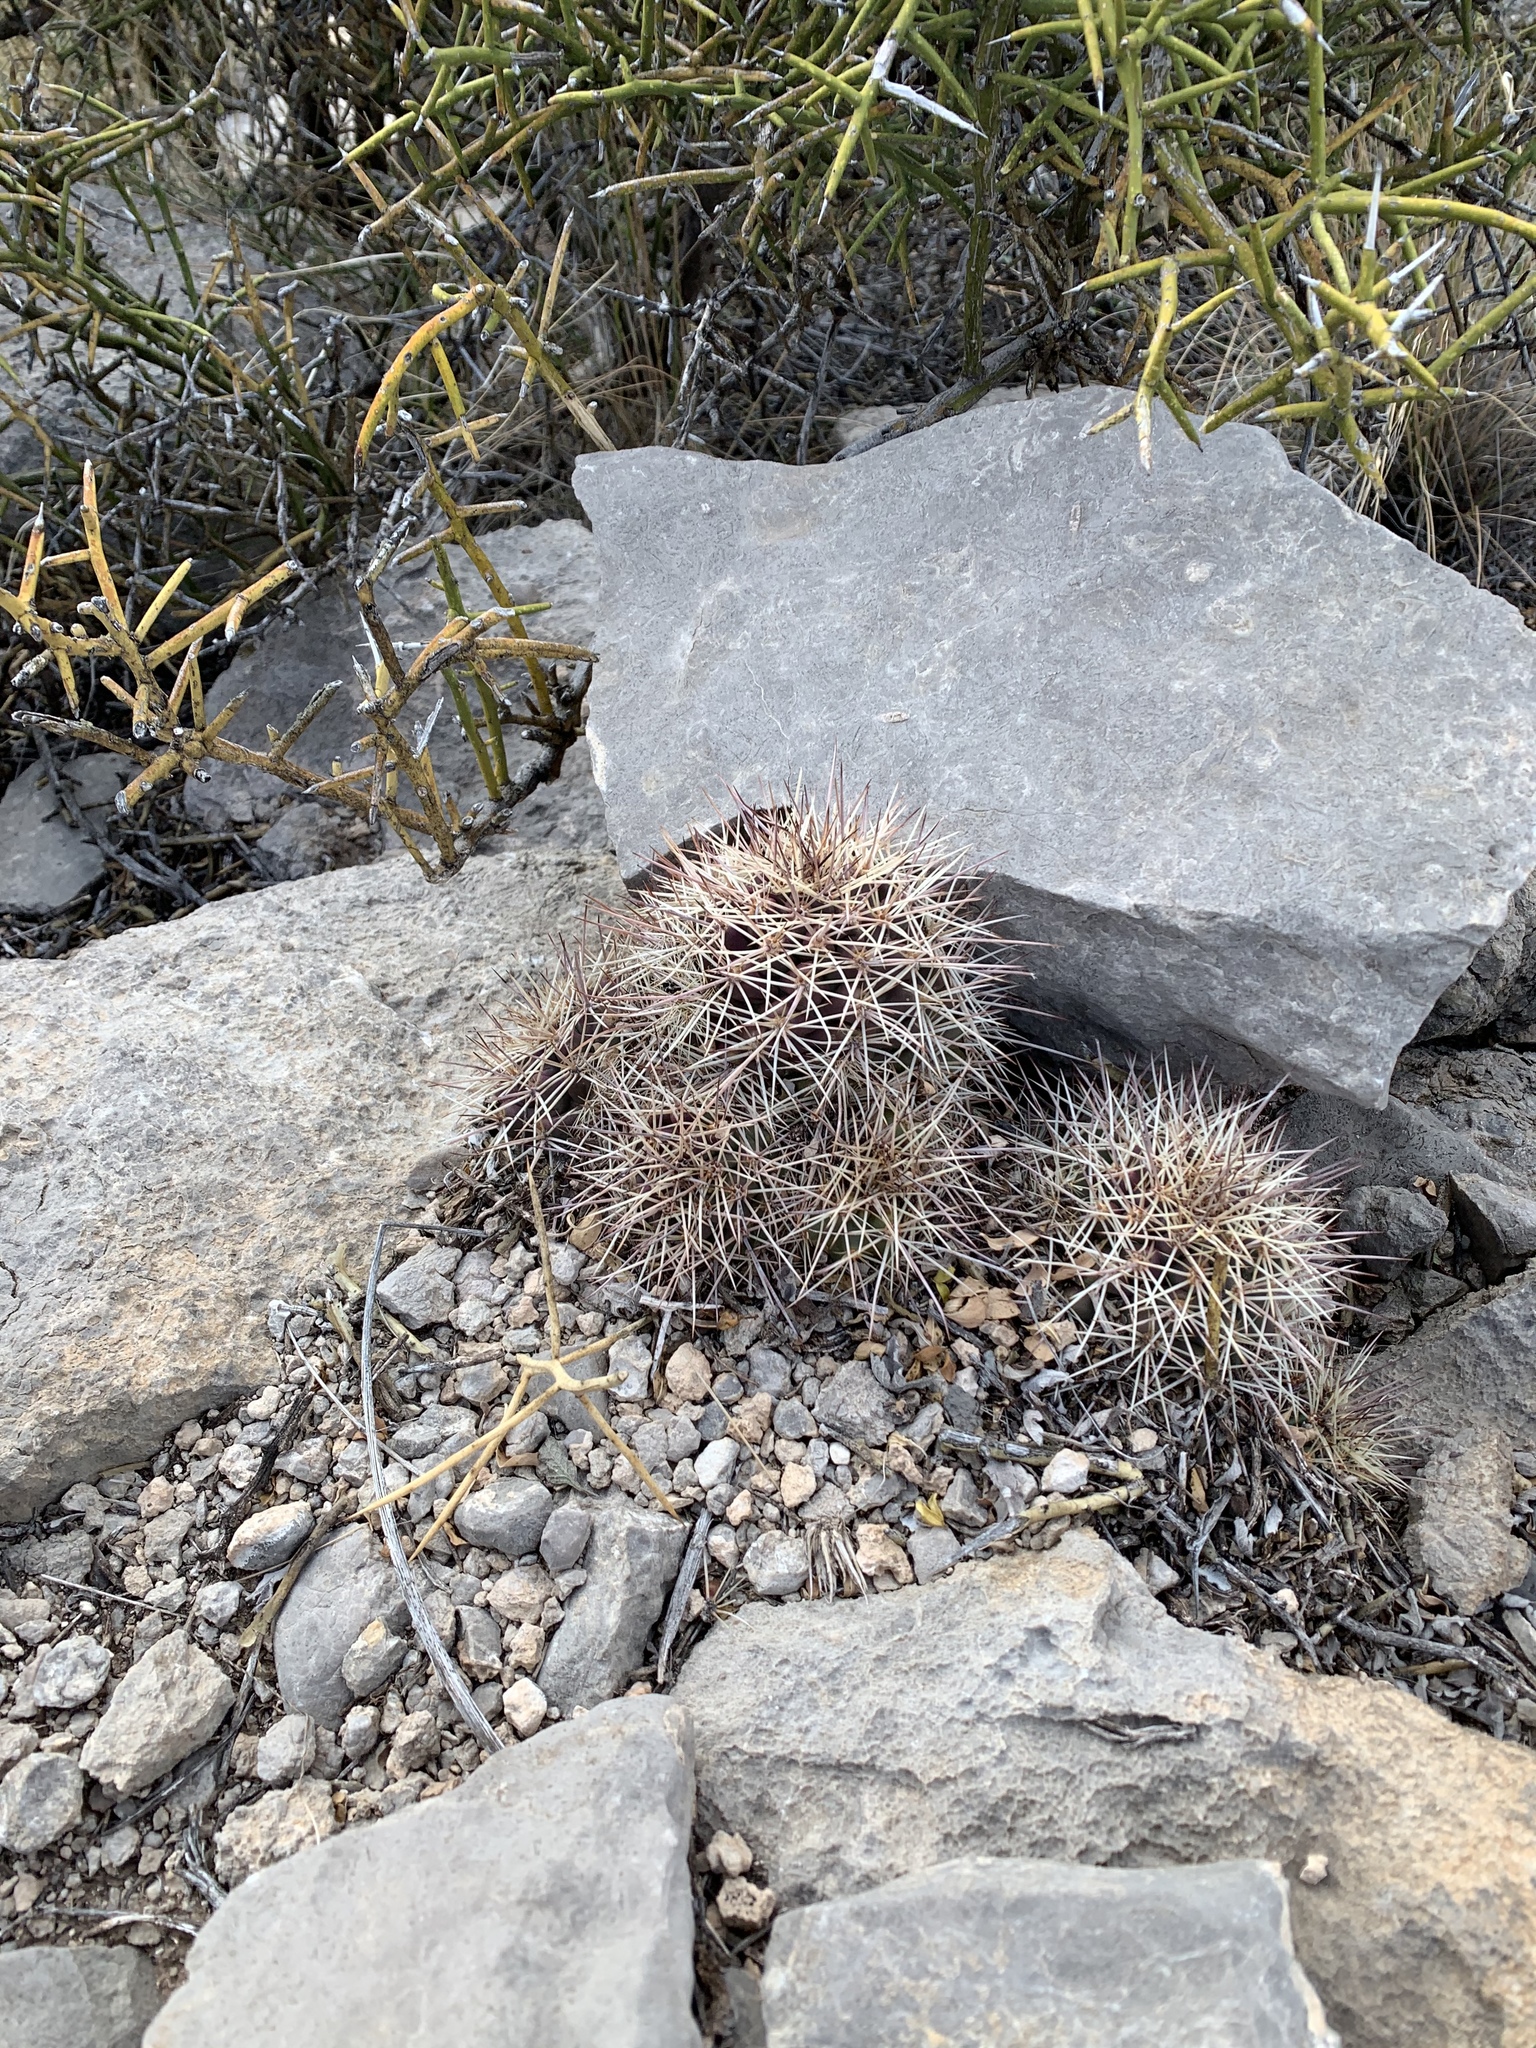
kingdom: Plantae
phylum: Tracheophyta
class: Magnoliopsida
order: Caryophyllales
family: Cactaceae
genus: Echinocereus
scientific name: Echinocereus coccineus
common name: Scarlet hedgehog cactus
